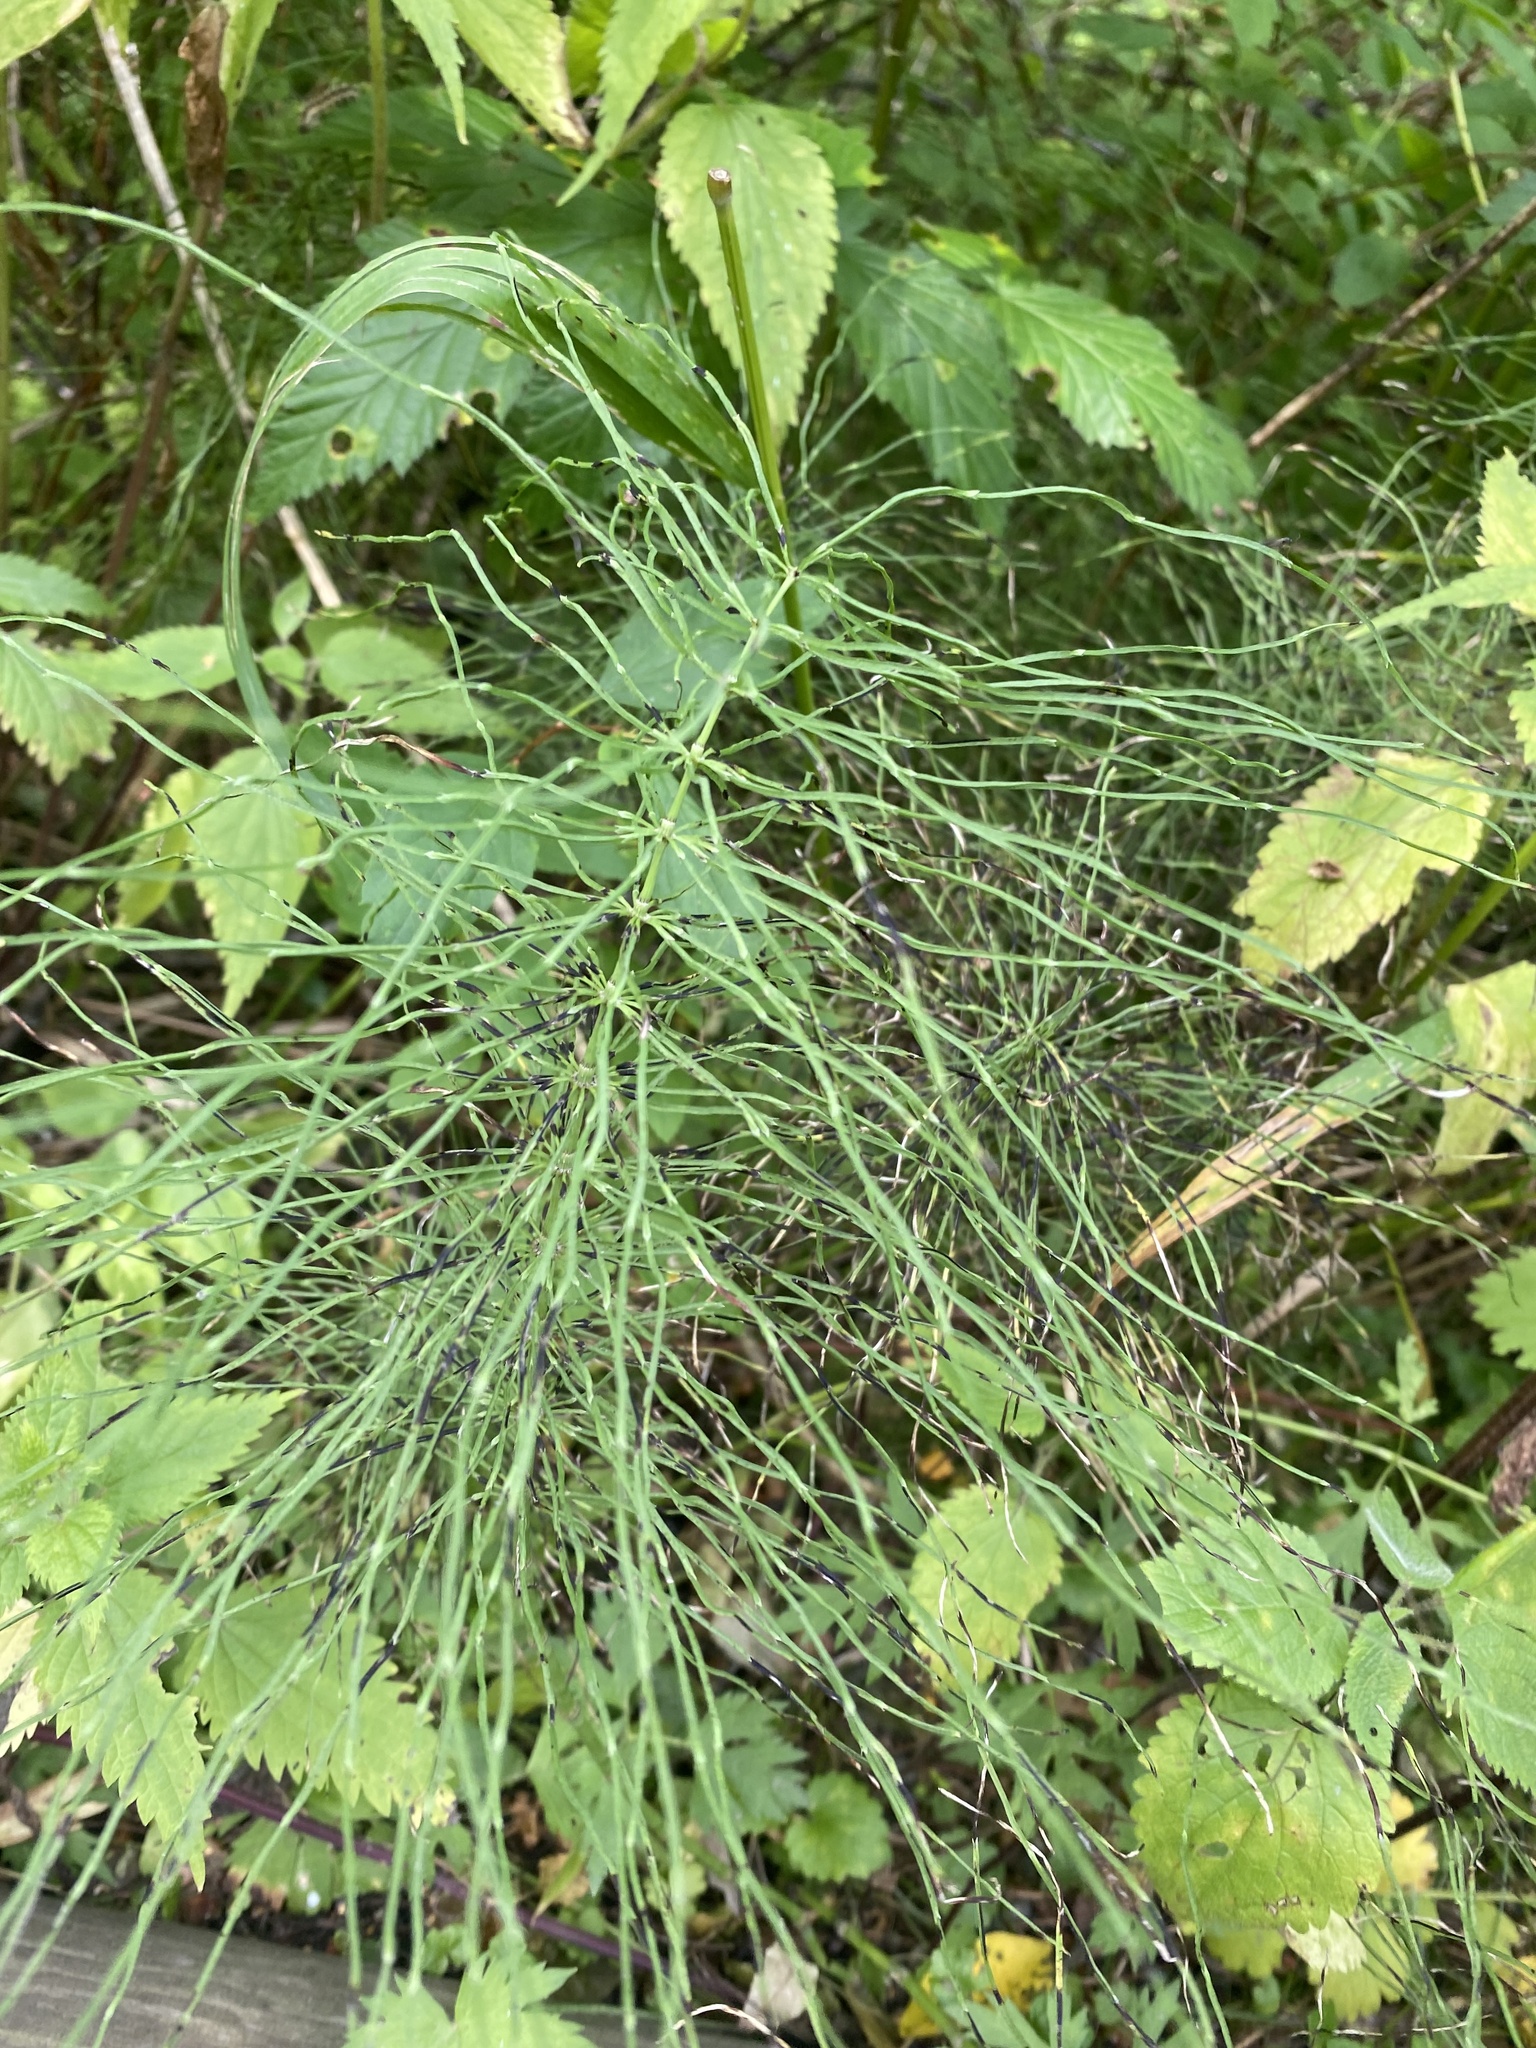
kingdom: Plantae
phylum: Tracheophyta
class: Polypodiopsida
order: Equisetales
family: Equisetaceae
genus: Equisetum
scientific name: Equisetum pratense
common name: Meadow horsetail
